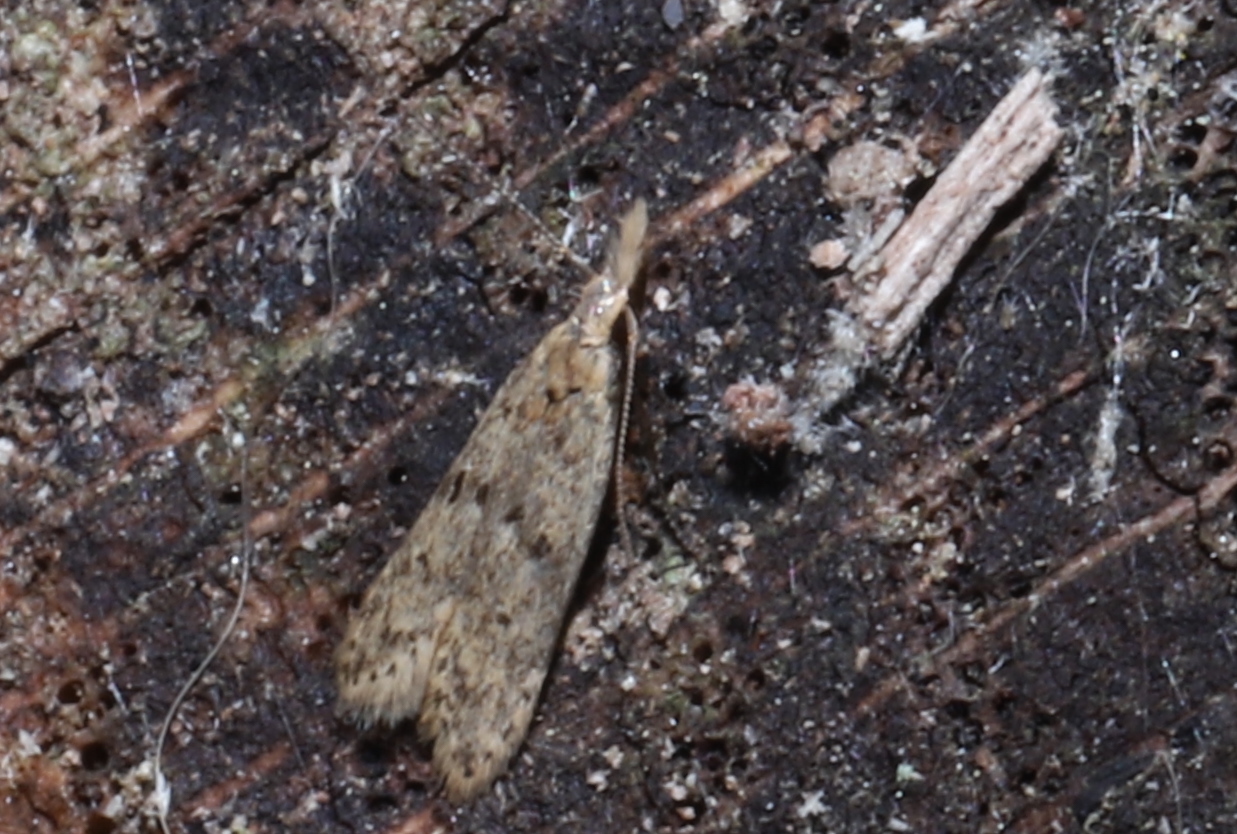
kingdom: Animalia
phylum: Arthropoda
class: Insecta
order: Lepidoptera
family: Gelechiidae
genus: Dichomeris
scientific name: Dichomeris punctipennella
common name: Many-spotted dichomeris moth
